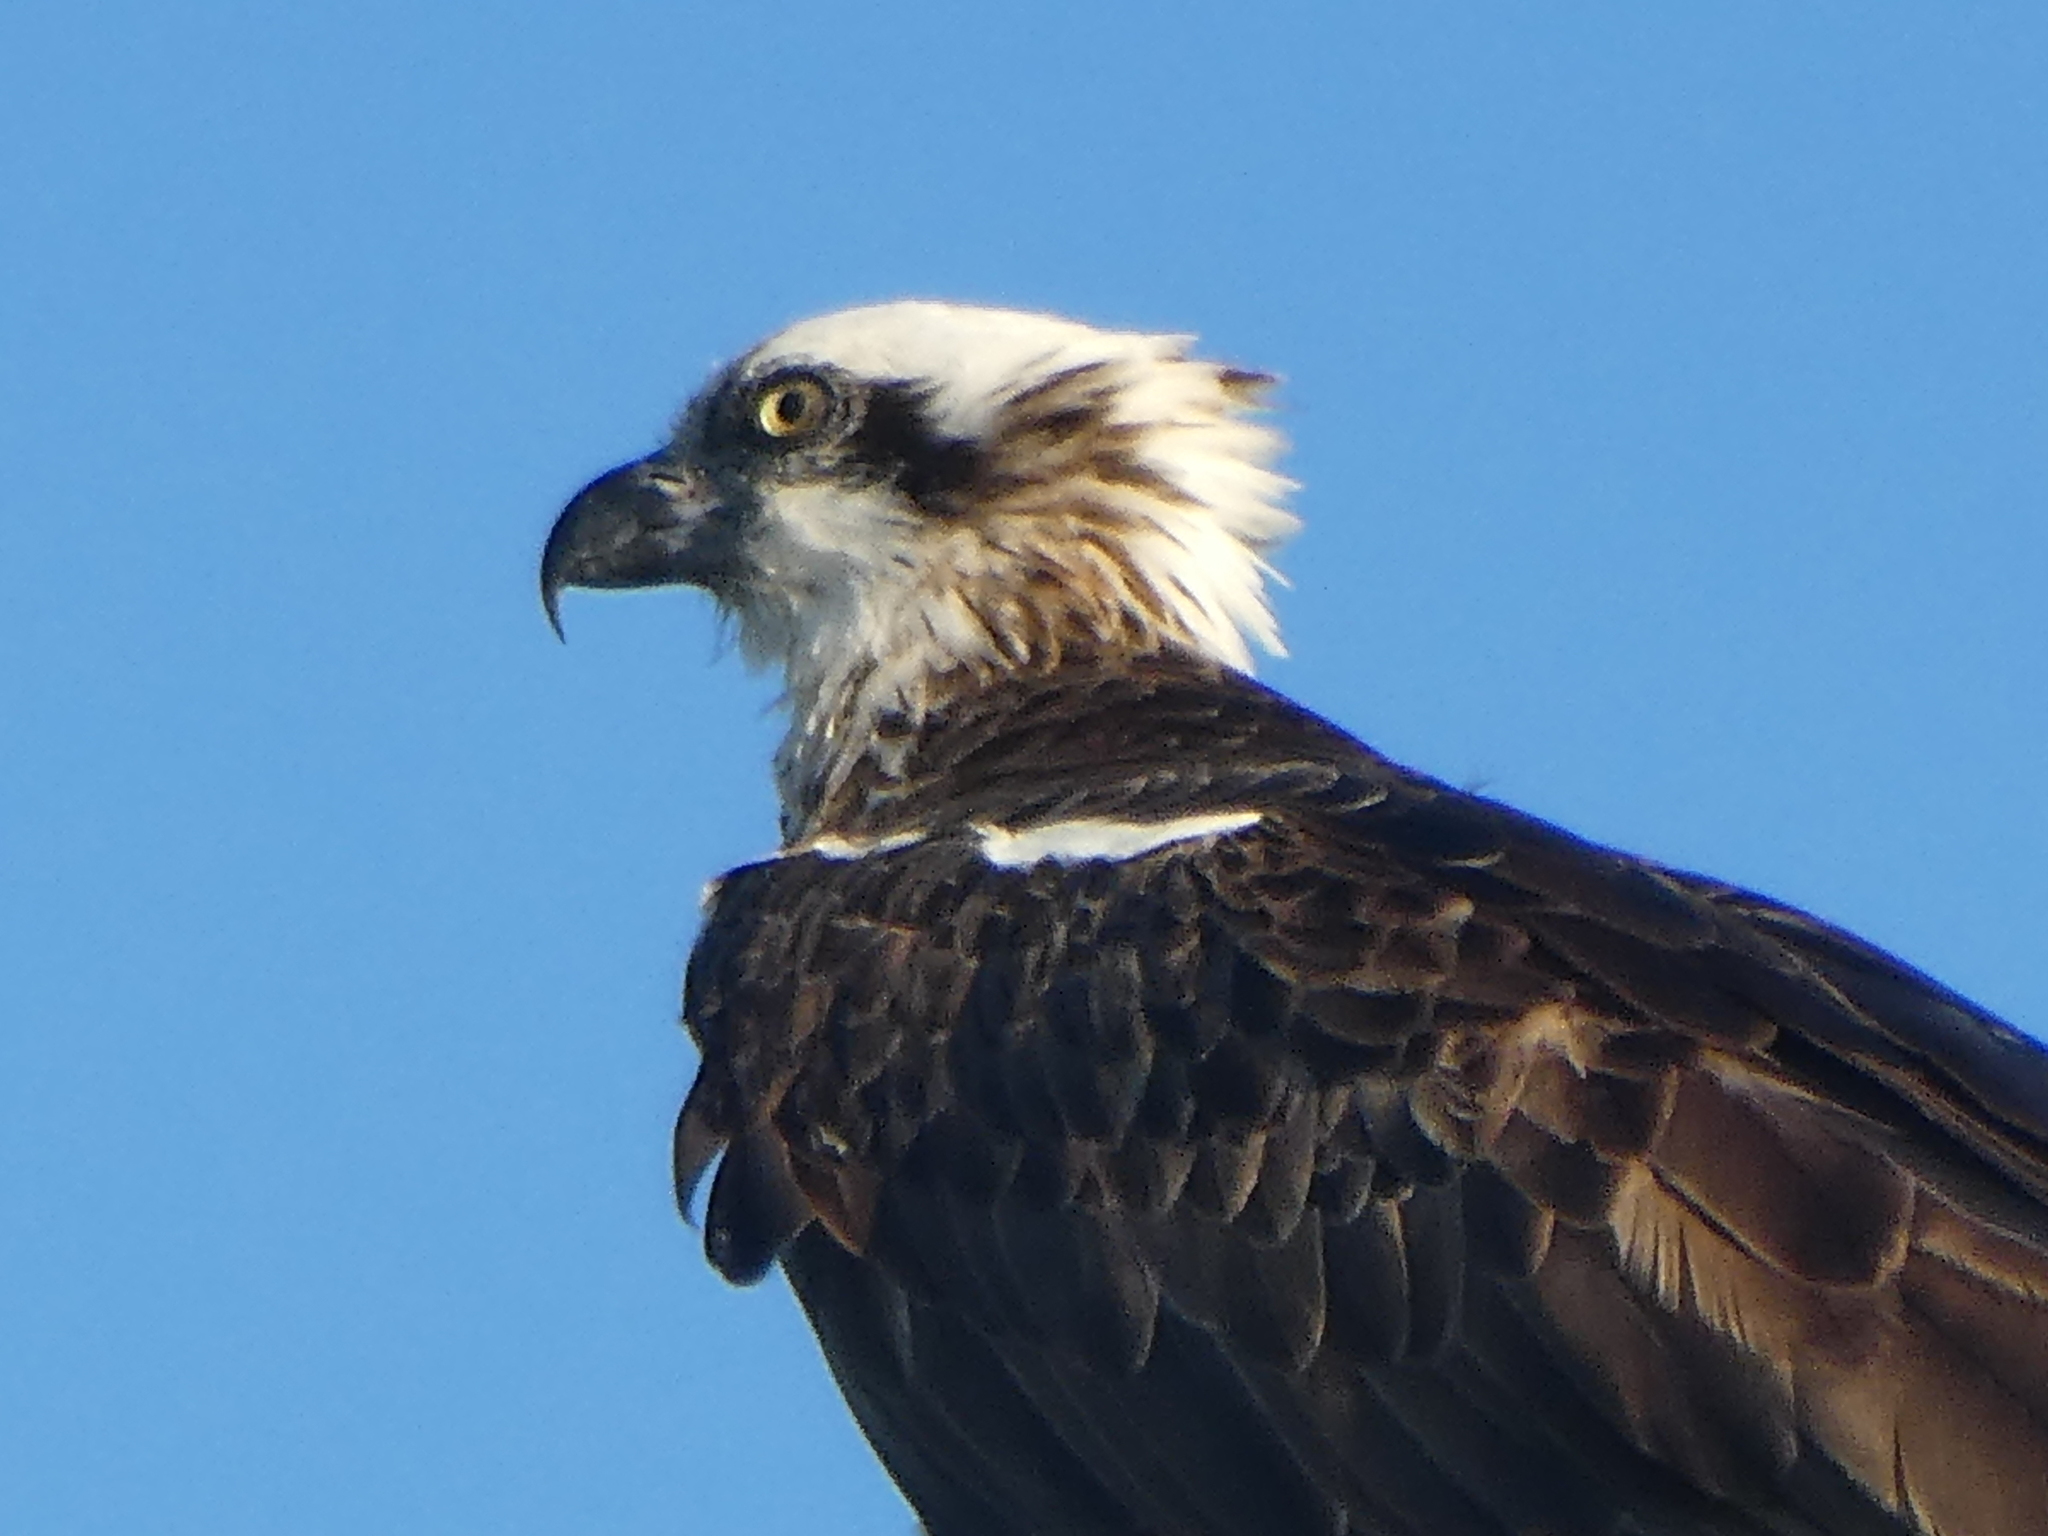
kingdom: Animalia
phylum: Chordata
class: Aves
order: Accipitriformes
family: Pandionidae
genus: Pandion
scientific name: Pandion cristatus
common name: Eastern osprey
